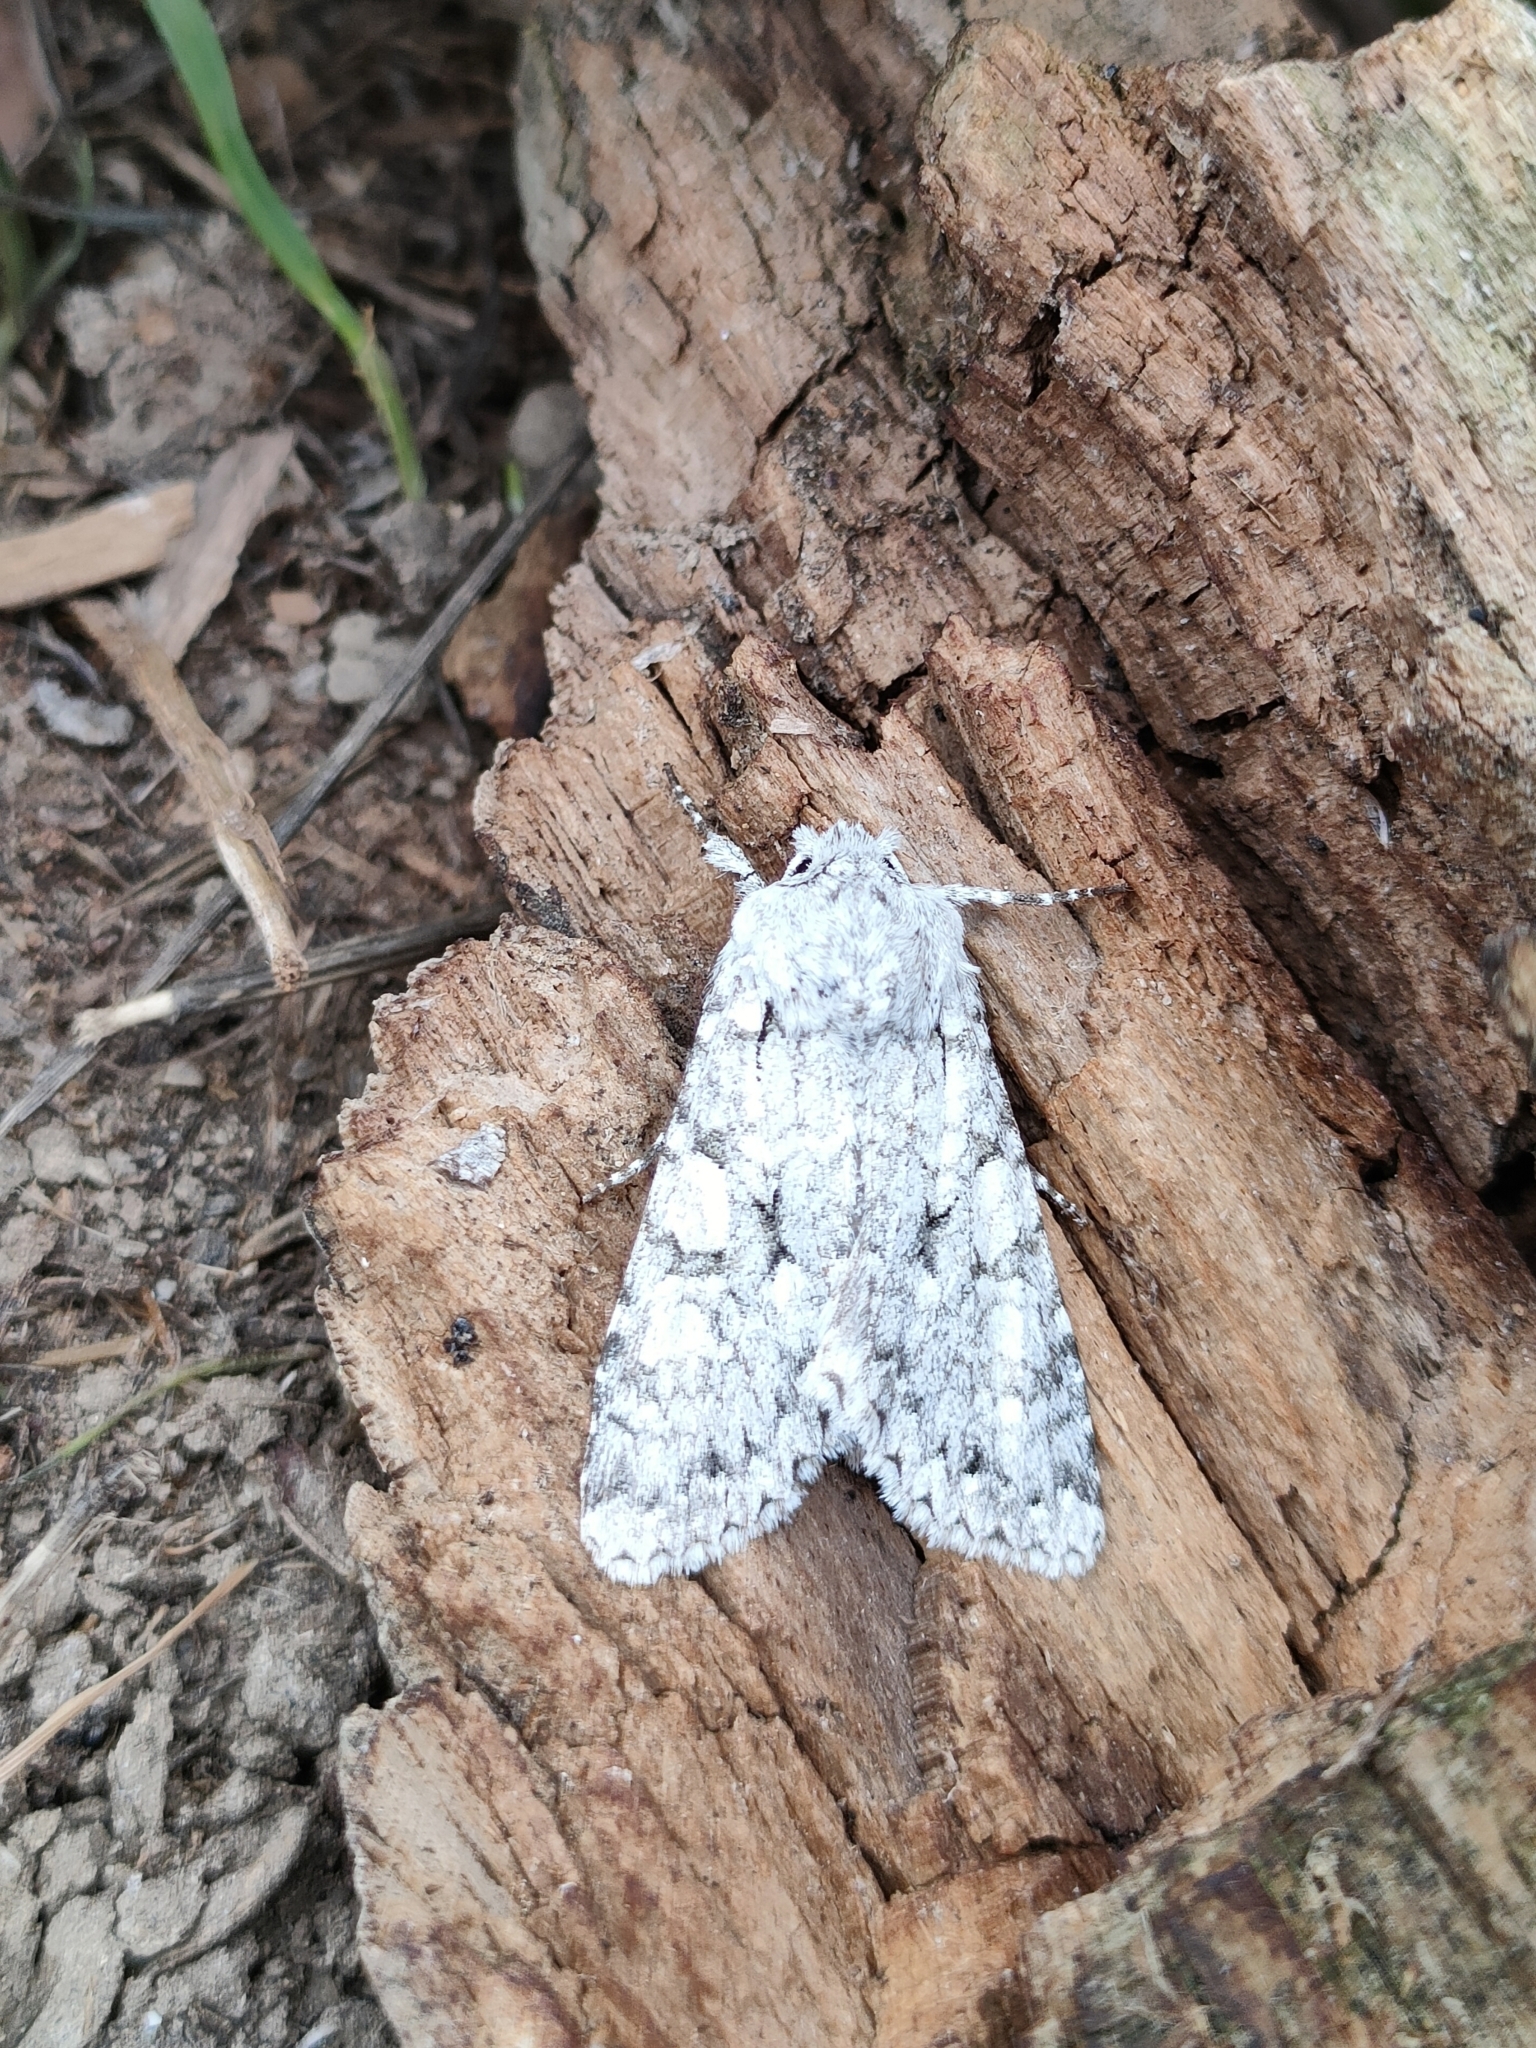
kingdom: Animalia
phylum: Arthropoda
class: Insecta
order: Lepidoptera
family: Noctuidae
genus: Antitype
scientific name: Antitype chi
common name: Grey chi
